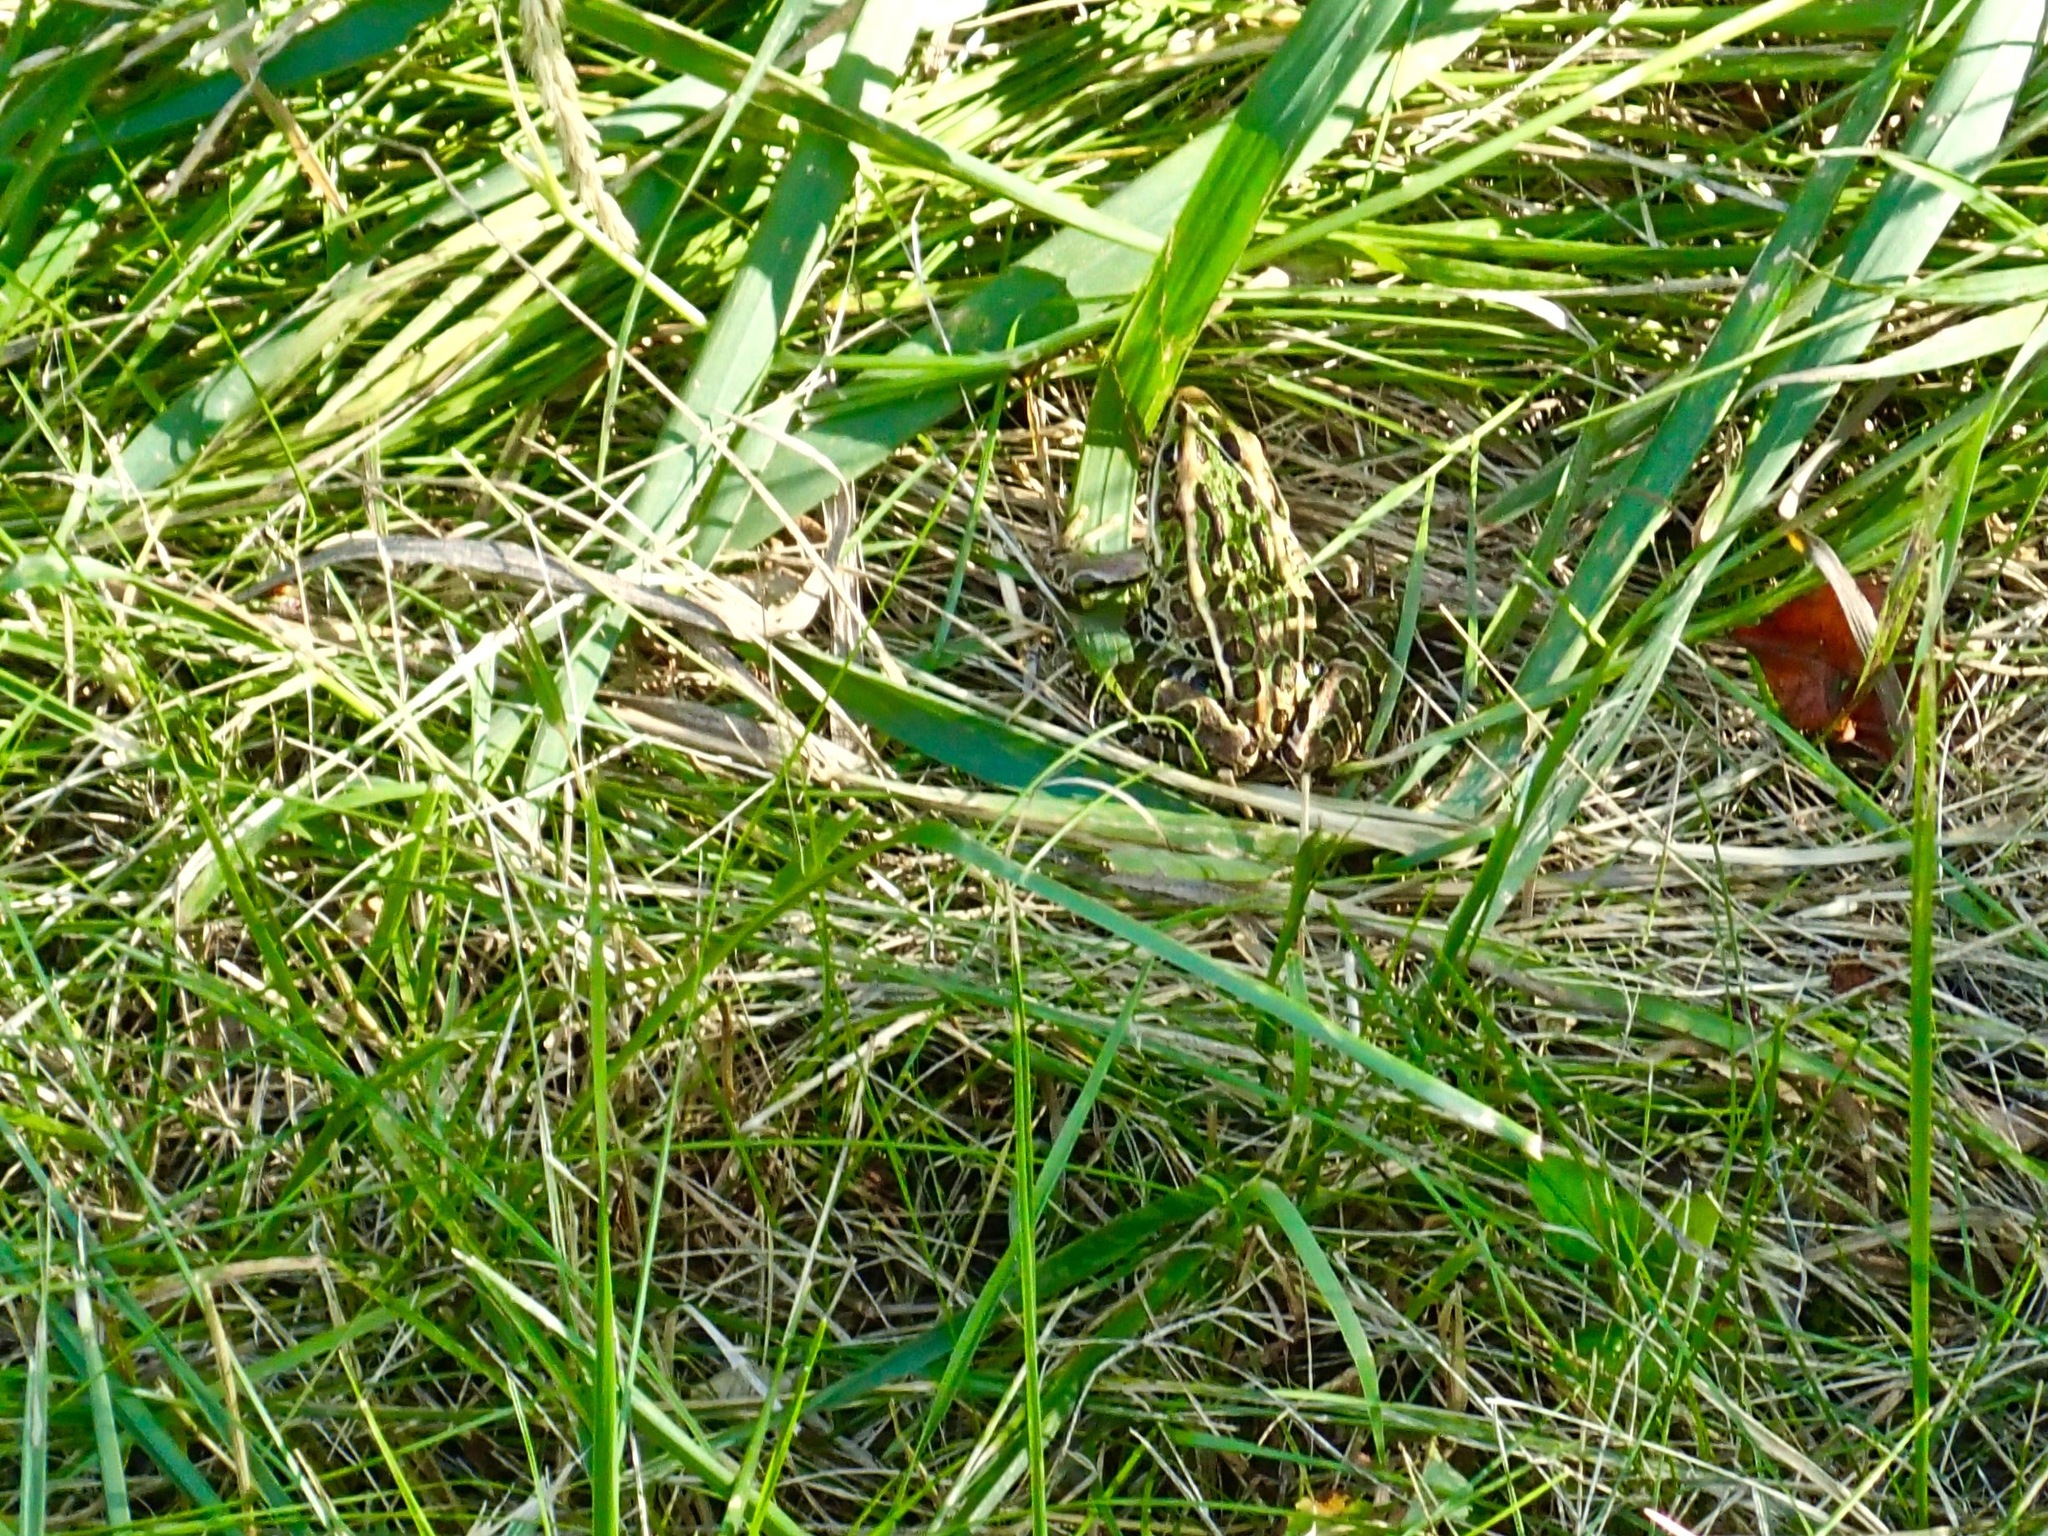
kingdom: Animalia
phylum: Chordata
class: Amphibia
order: Anura
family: Ranidae
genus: Lithobates
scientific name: Lithobates pipiens
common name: Northern leopard frog
